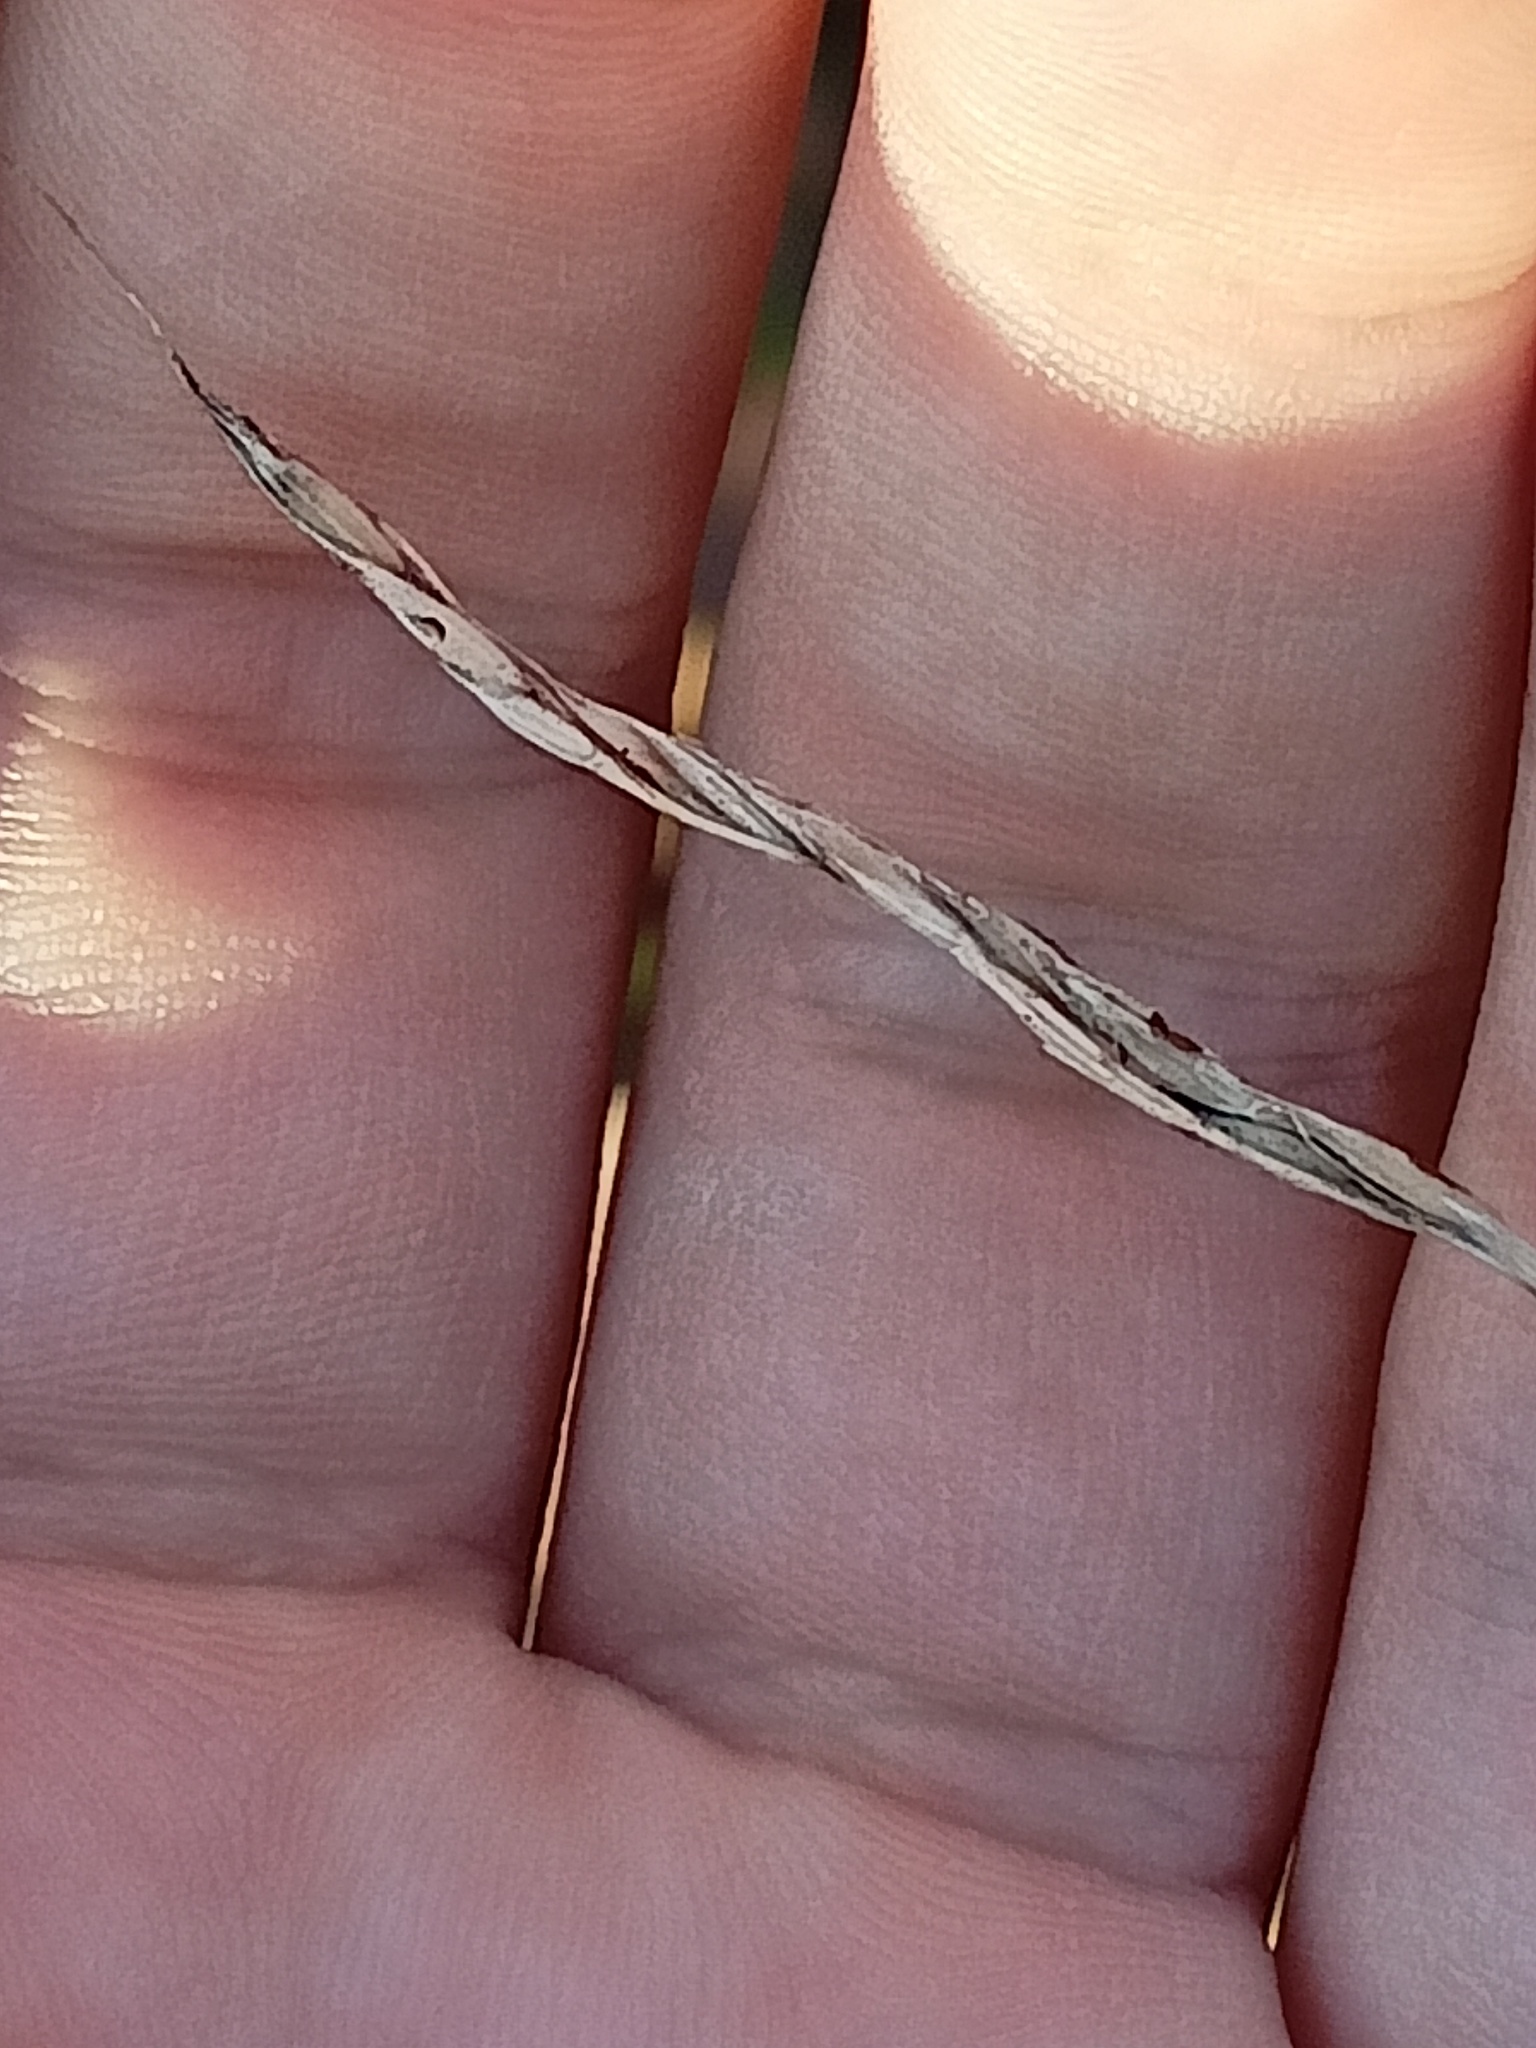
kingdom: Plantae
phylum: Tracheophyta
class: Liliopsida
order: Poales
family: Poaceae
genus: Milium
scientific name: Milium effusum
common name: Wood millet
